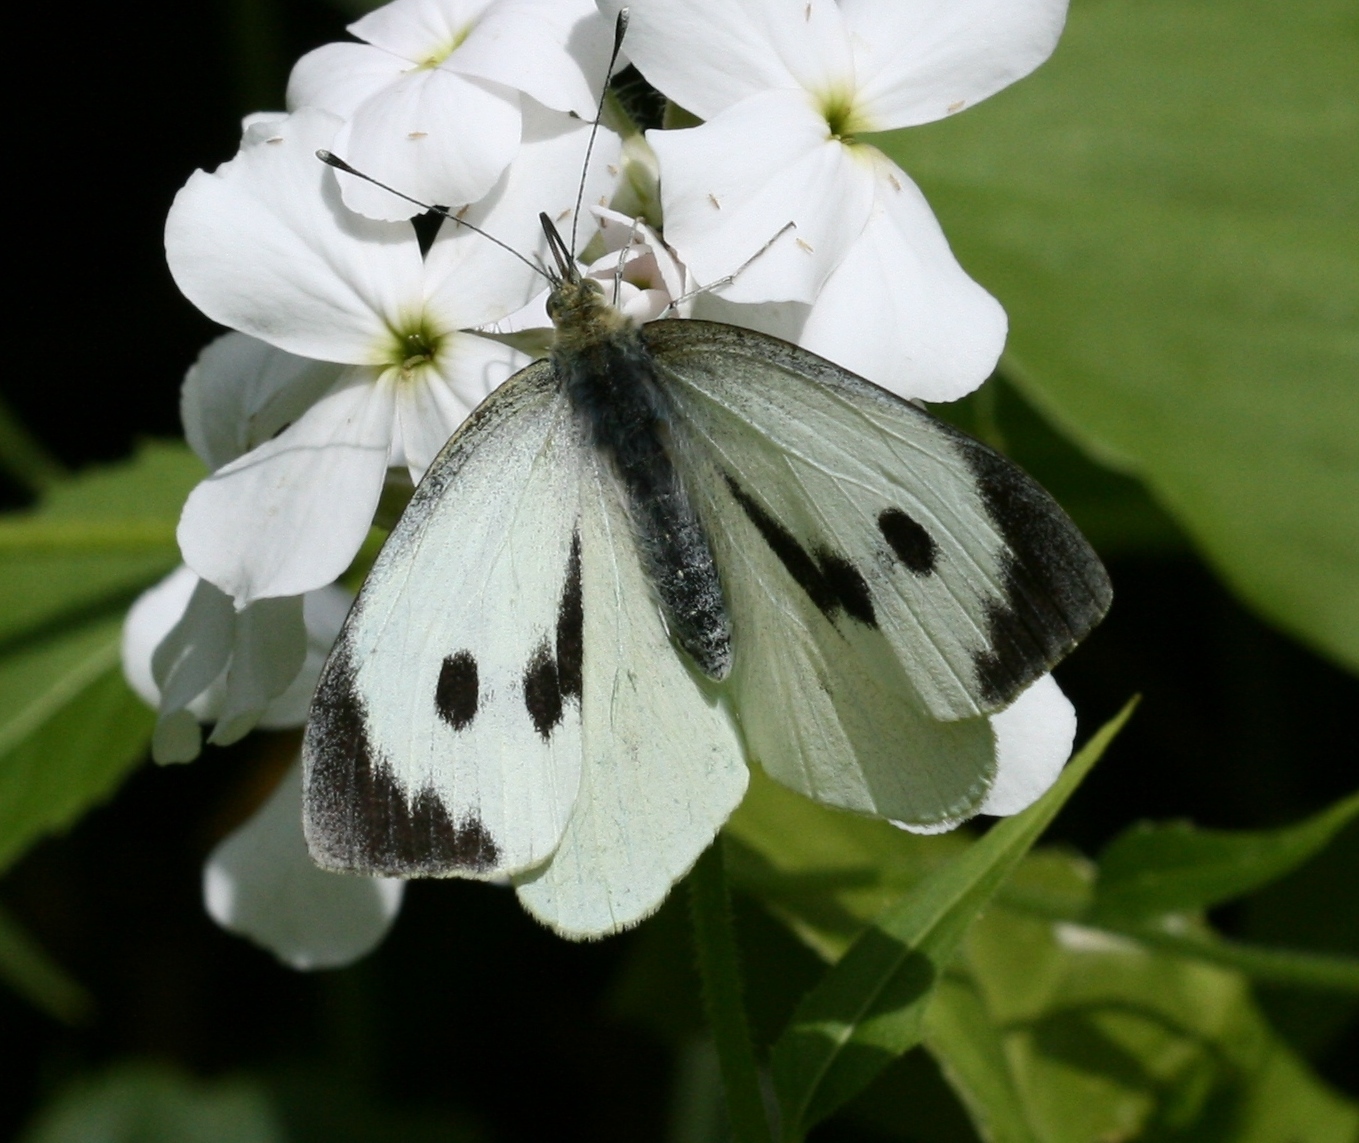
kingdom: Animalia
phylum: Arthropoda
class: Insecta
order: Lepidoptera
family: Pieridae
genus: Pieris
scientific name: Pieris brassicae
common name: Large white
